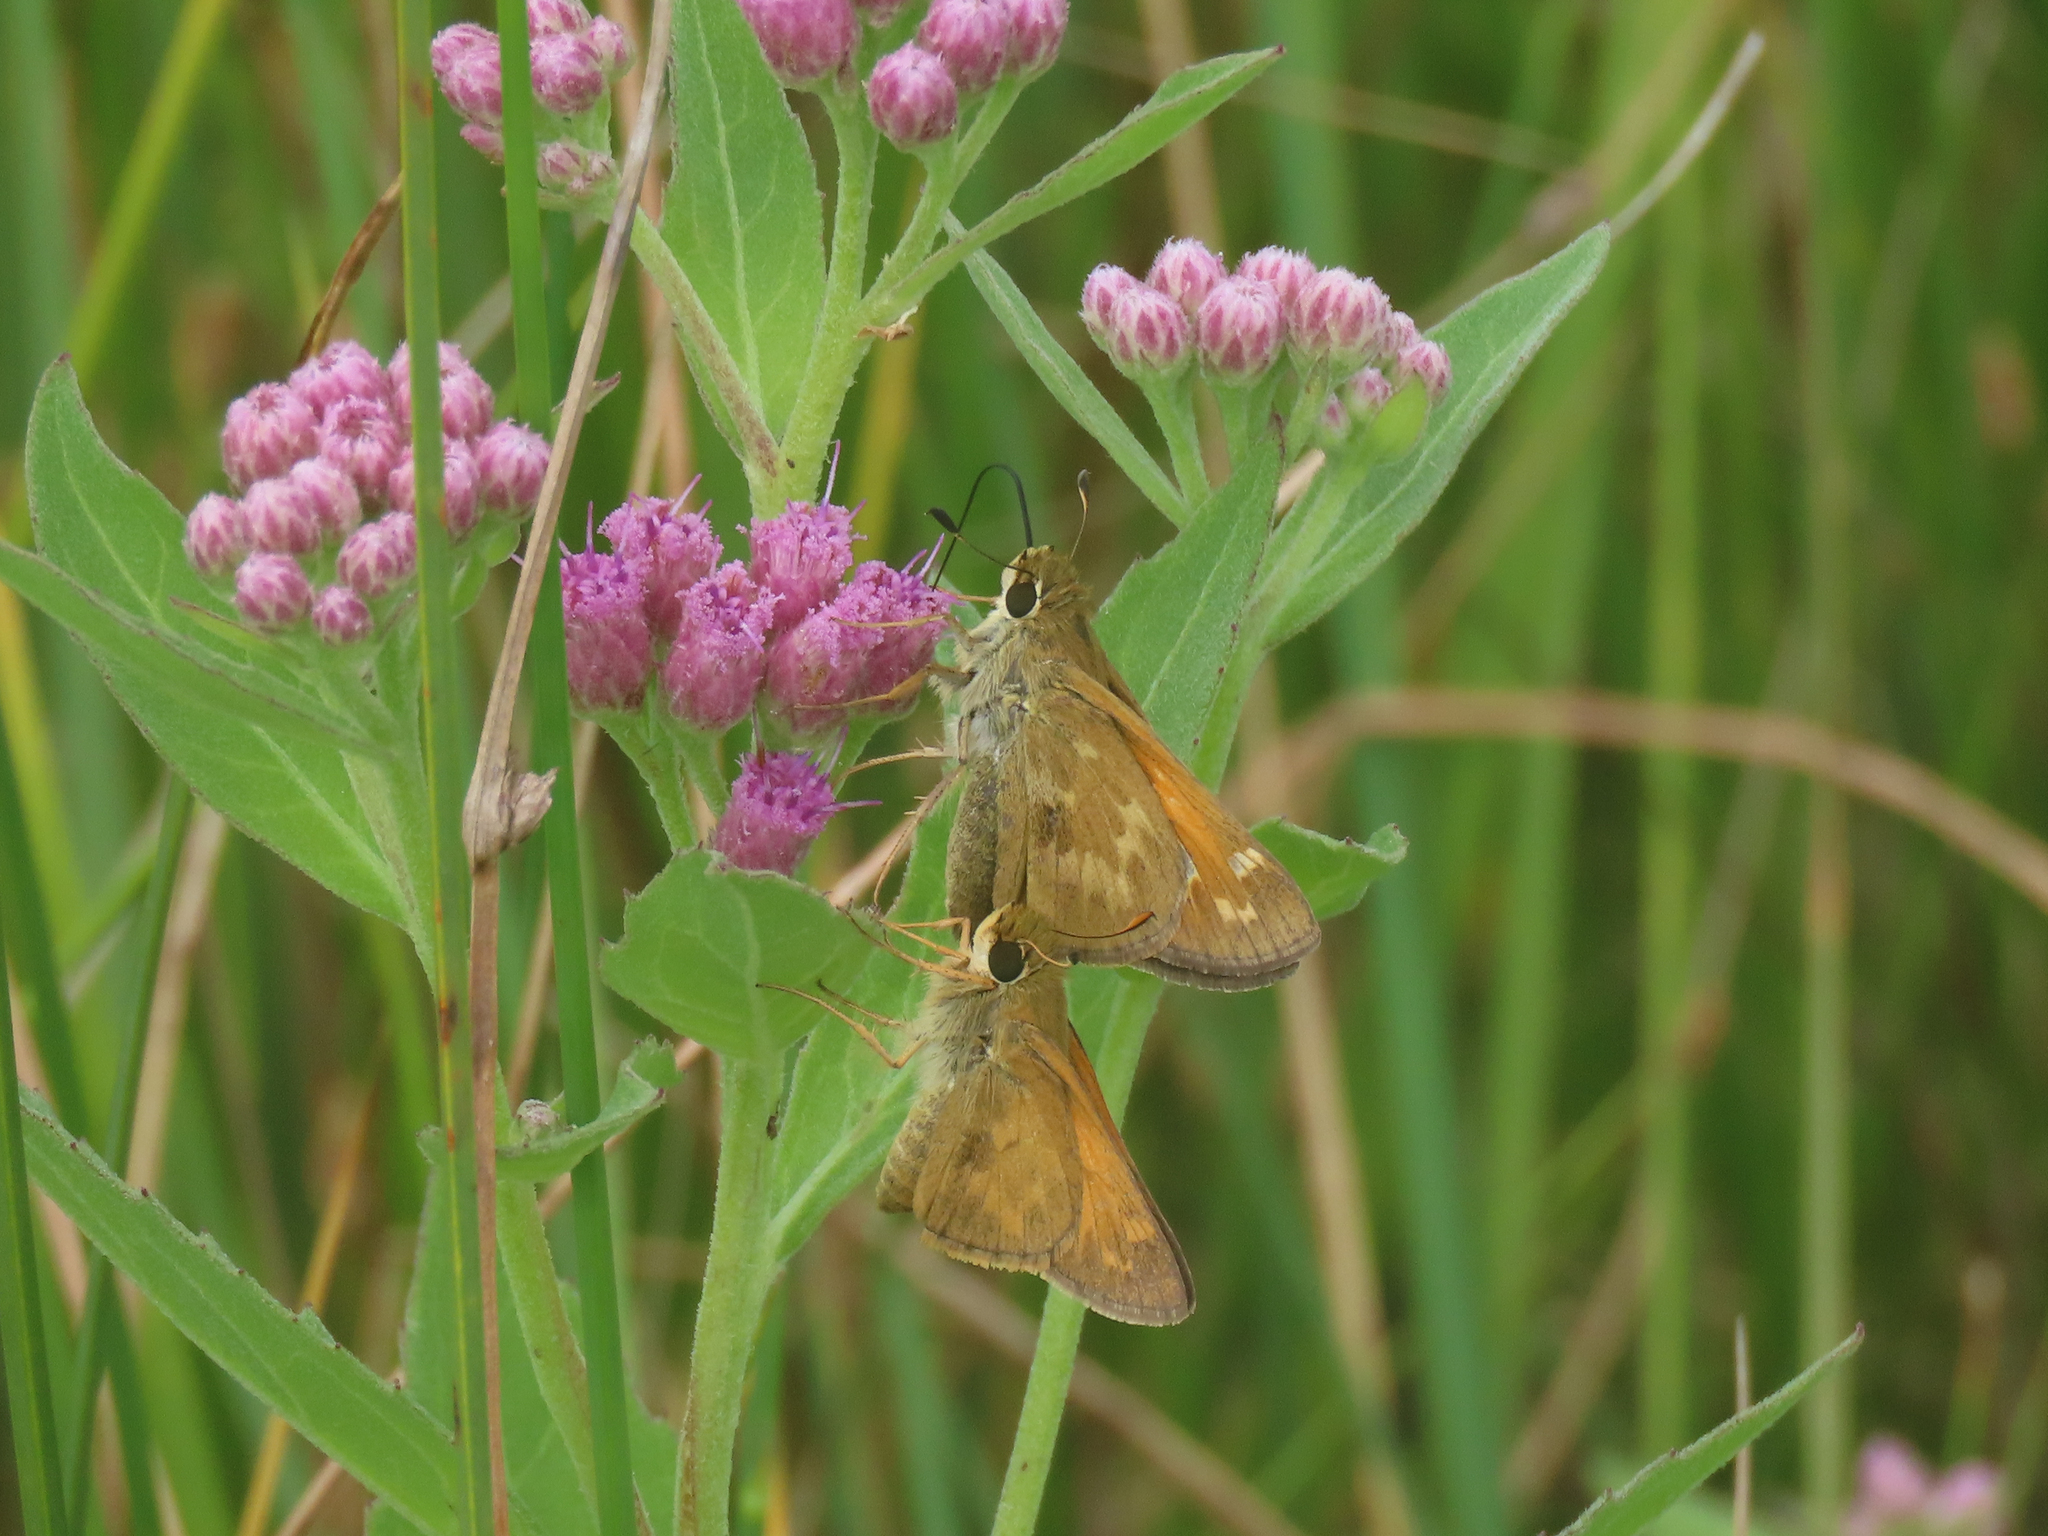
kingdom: Animalia
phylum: Arthropoda
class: Insecta
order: Lepidoptera
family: Hesperiidae
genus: Atalopedes
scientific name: Atalopedes
